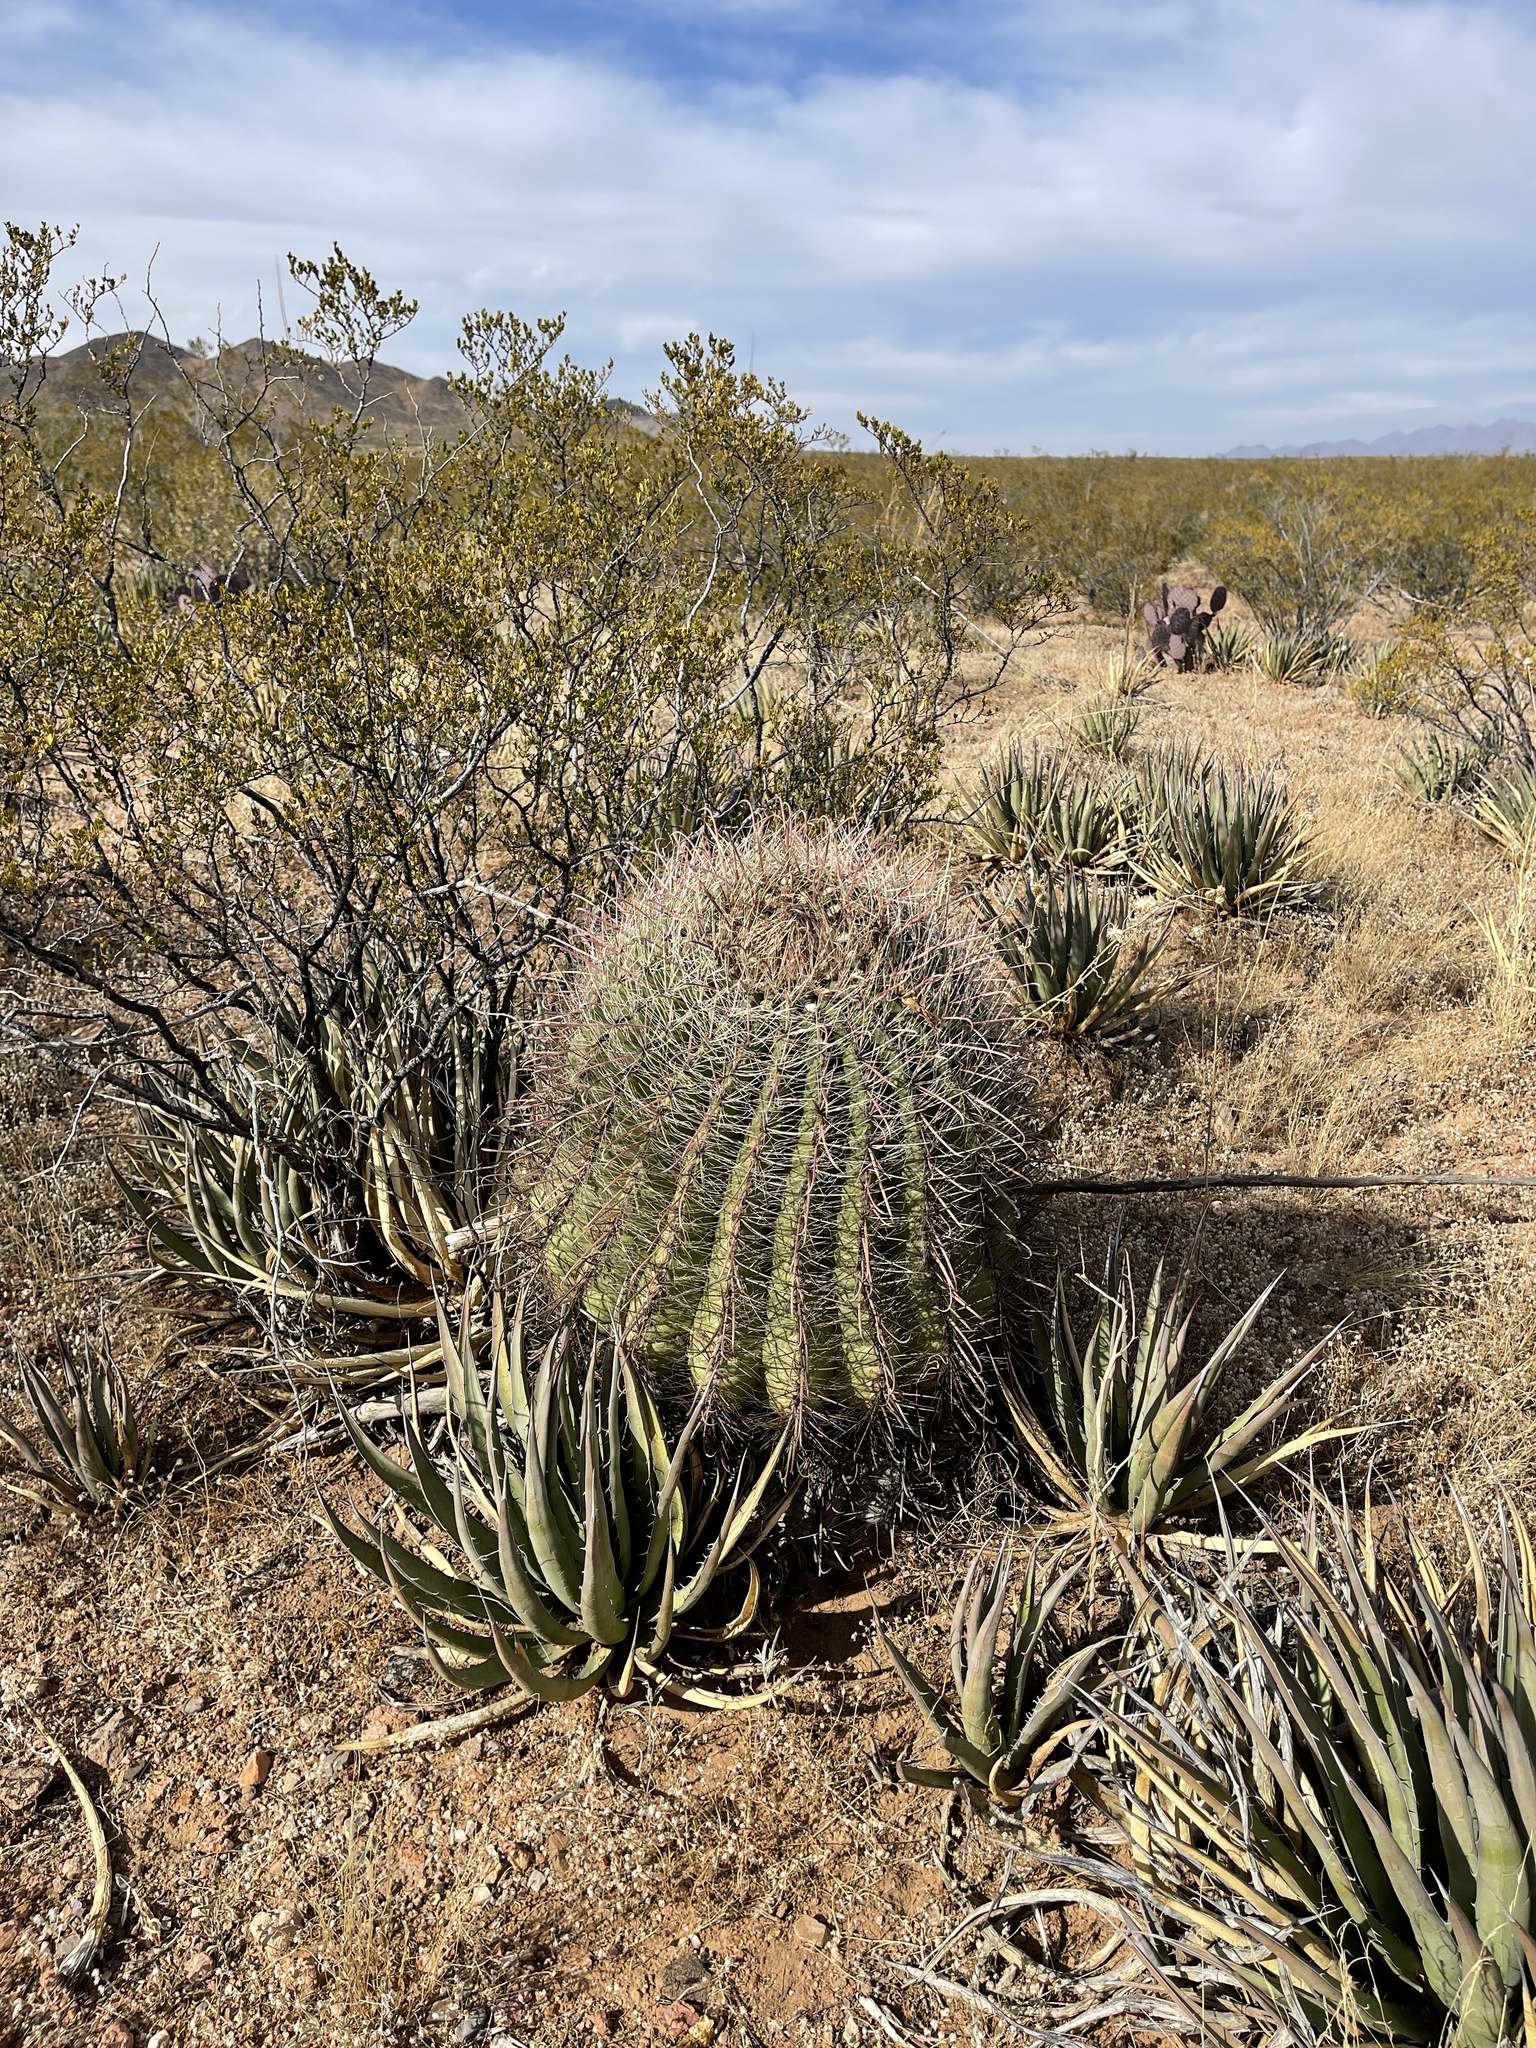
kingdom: Plantae
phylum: Tracheophyta
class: Magnoliopsida
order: Caryophyllales
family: Cactaceae
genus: Ferocactus
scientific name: Ferocactus wislizeni
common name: Candy barrel cactus
